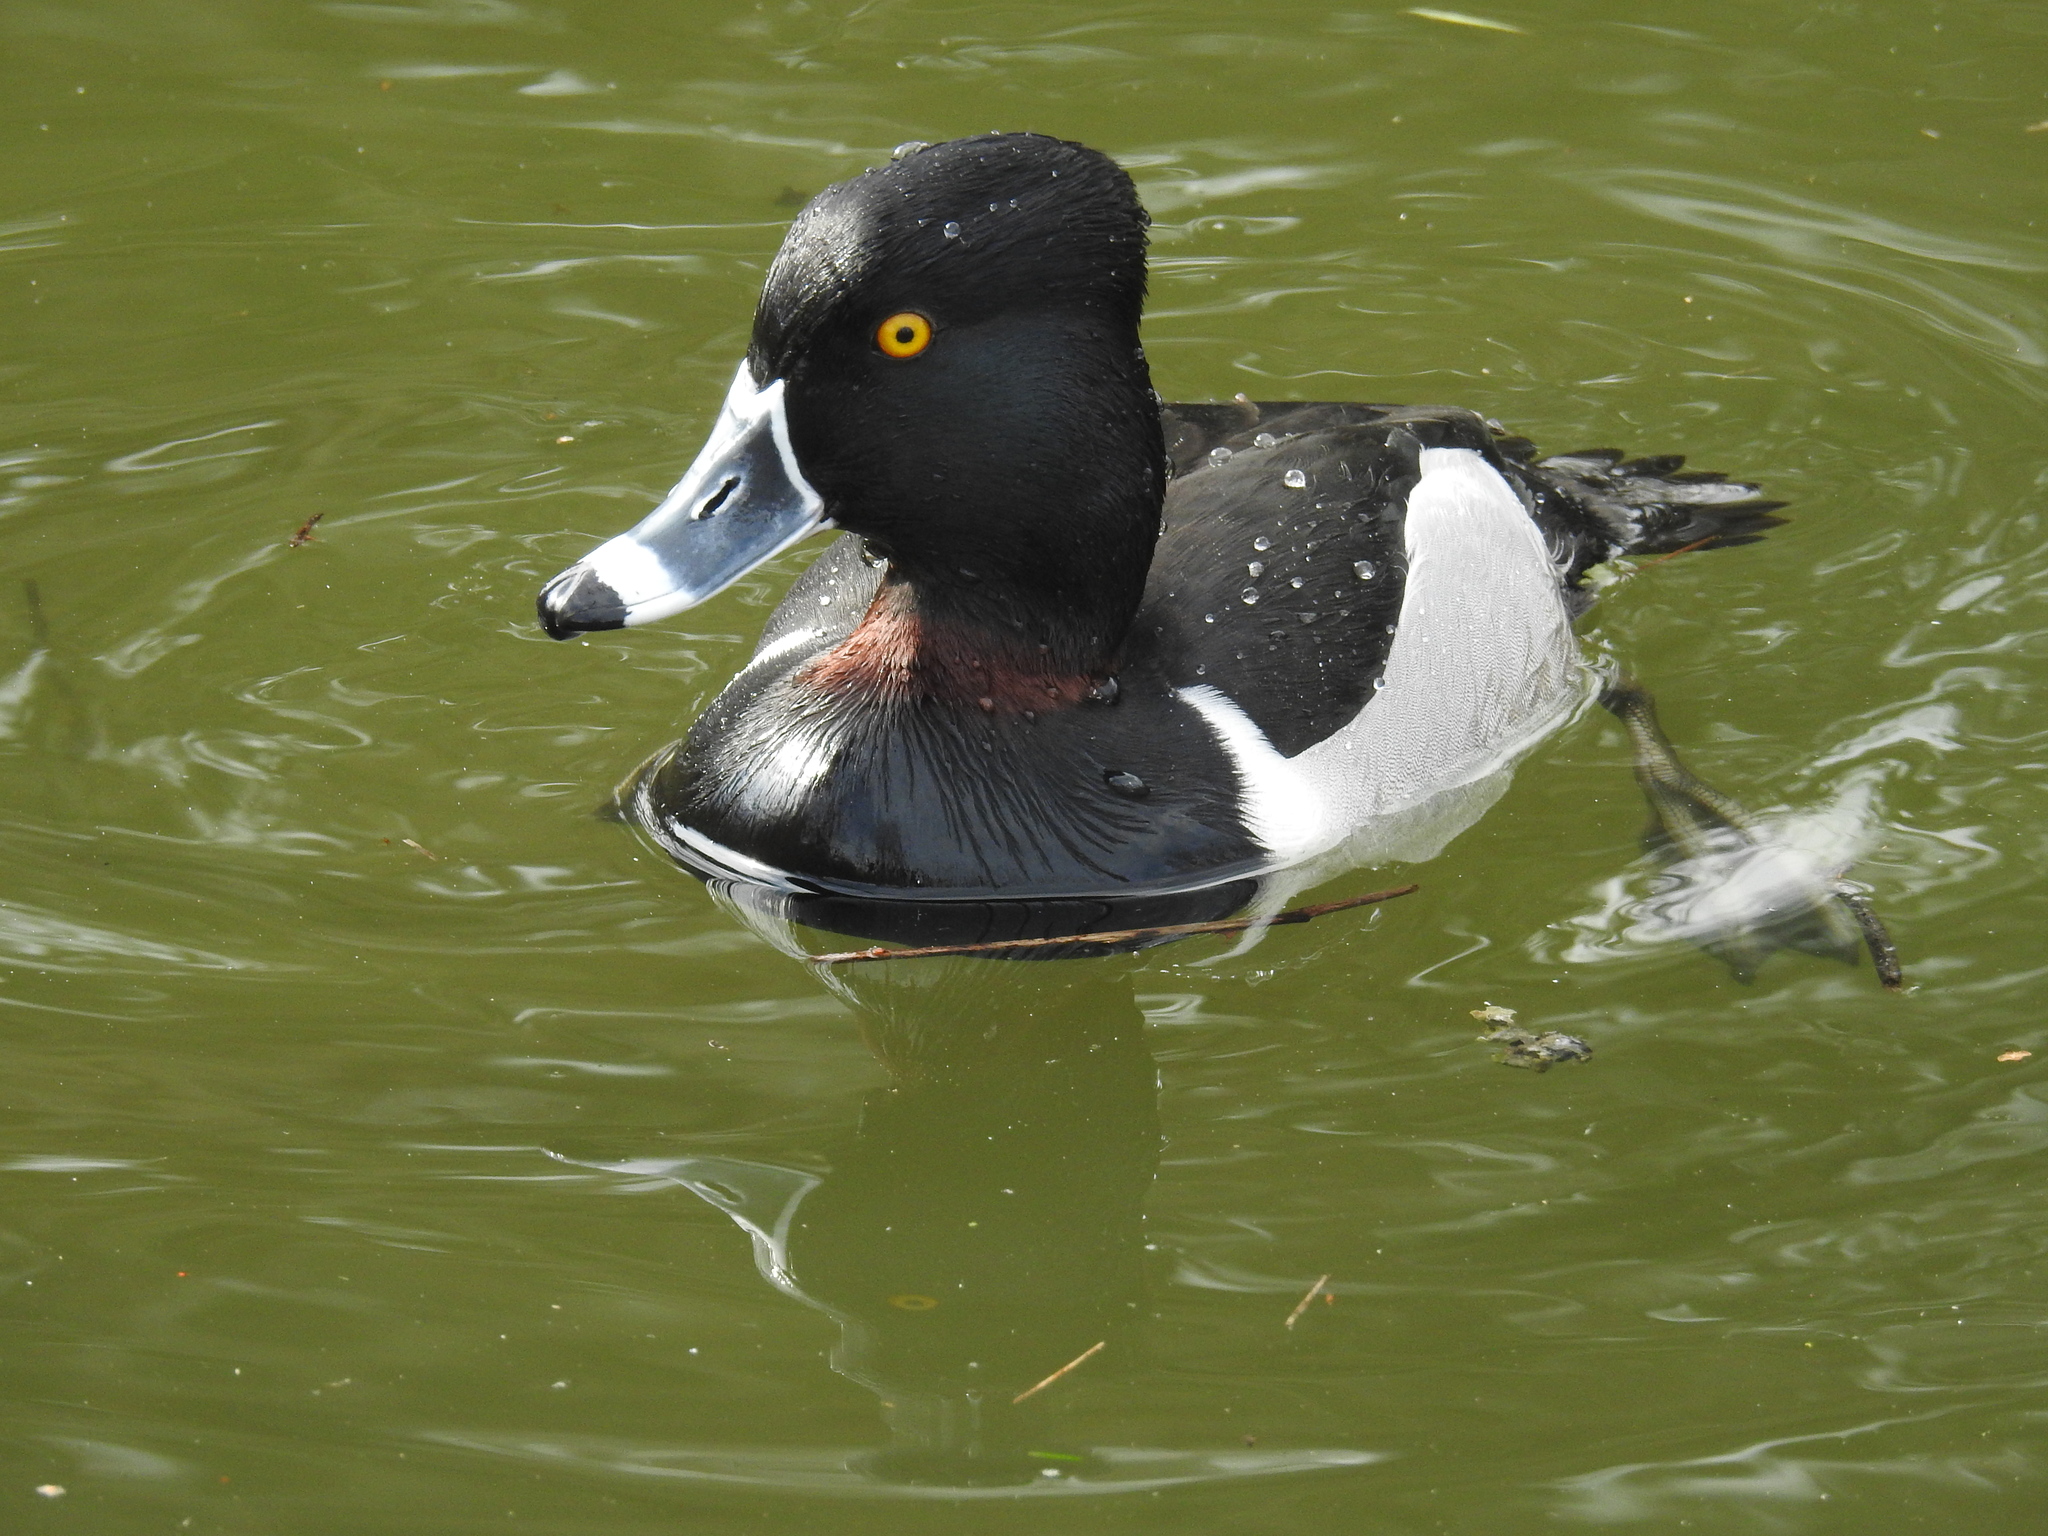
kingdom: Animalia
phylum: Chordata
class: Aves
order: Anseriformes
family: Anatidae
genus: Aythya
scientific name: Aythya collaris
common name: Ring-necked duck
